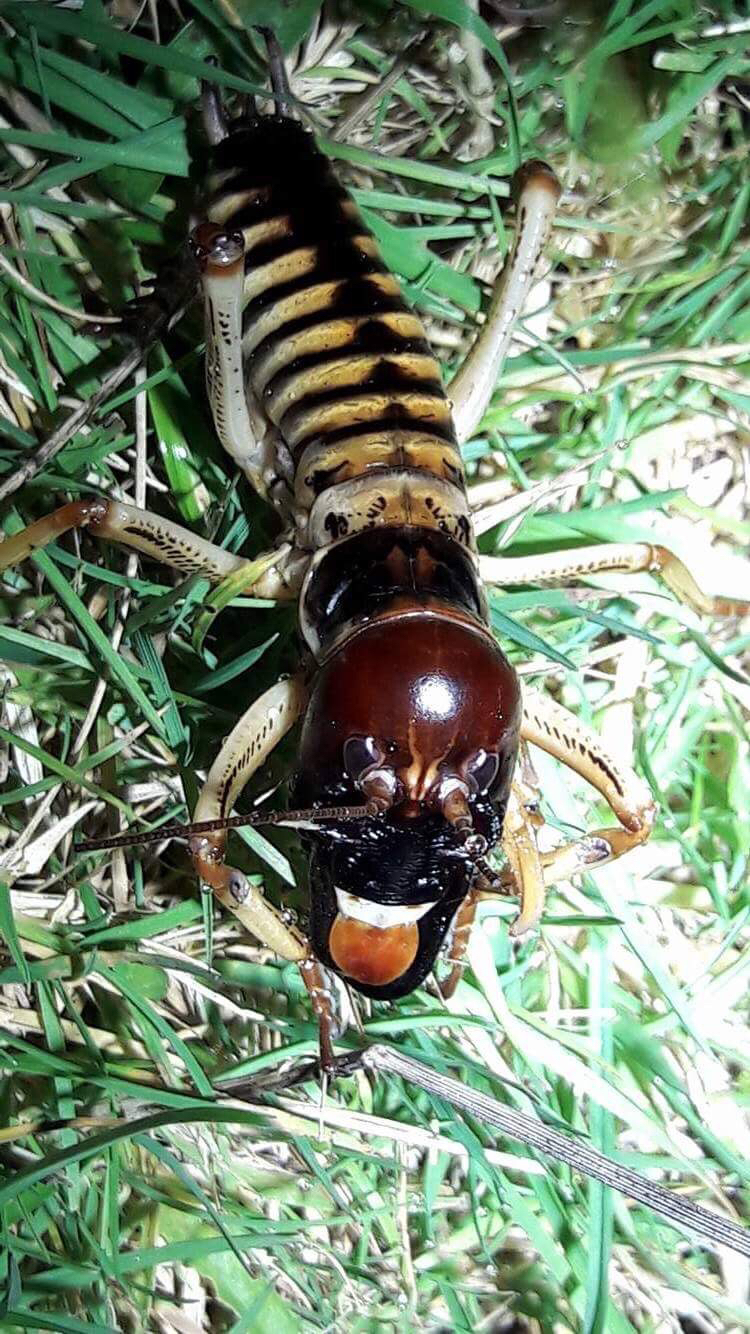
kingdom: Animalia
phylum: Arthropoda
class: Insecta
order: Orthoptera
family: Anostostomatidae
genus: Hemideina
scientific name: Hemideina crassidens
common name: Wellington tree weta
